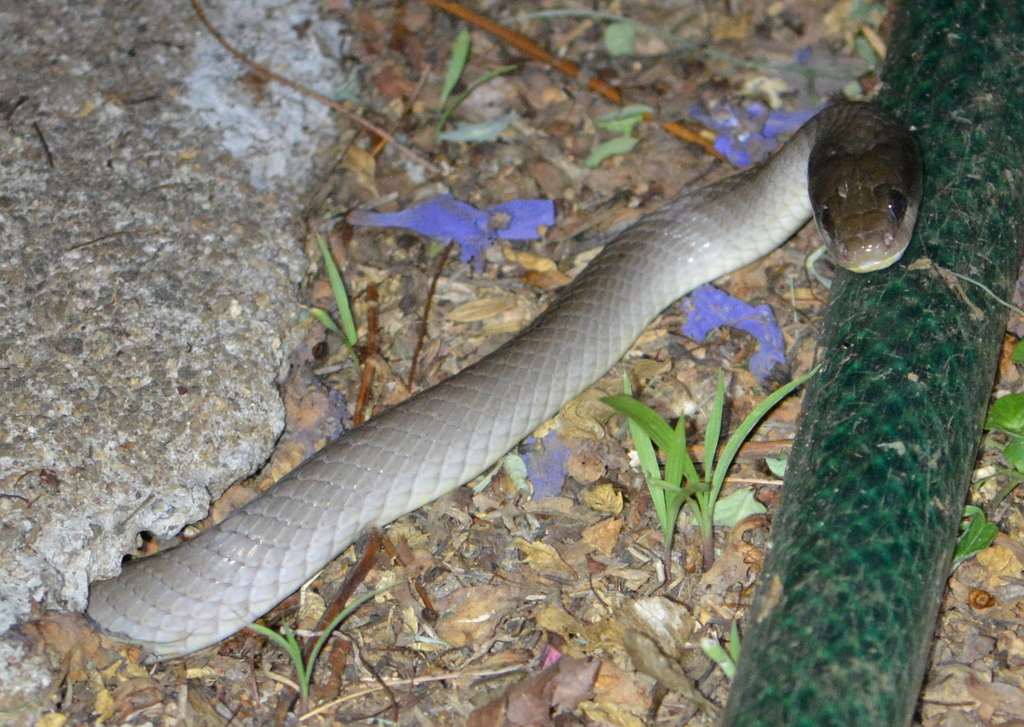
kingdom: Animalia
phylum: Chordata
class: Squamata
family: Colubridae
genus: Crotaphopeltis
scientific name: Crotaphopeltis hotamboeia
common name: Red-lipped snake
